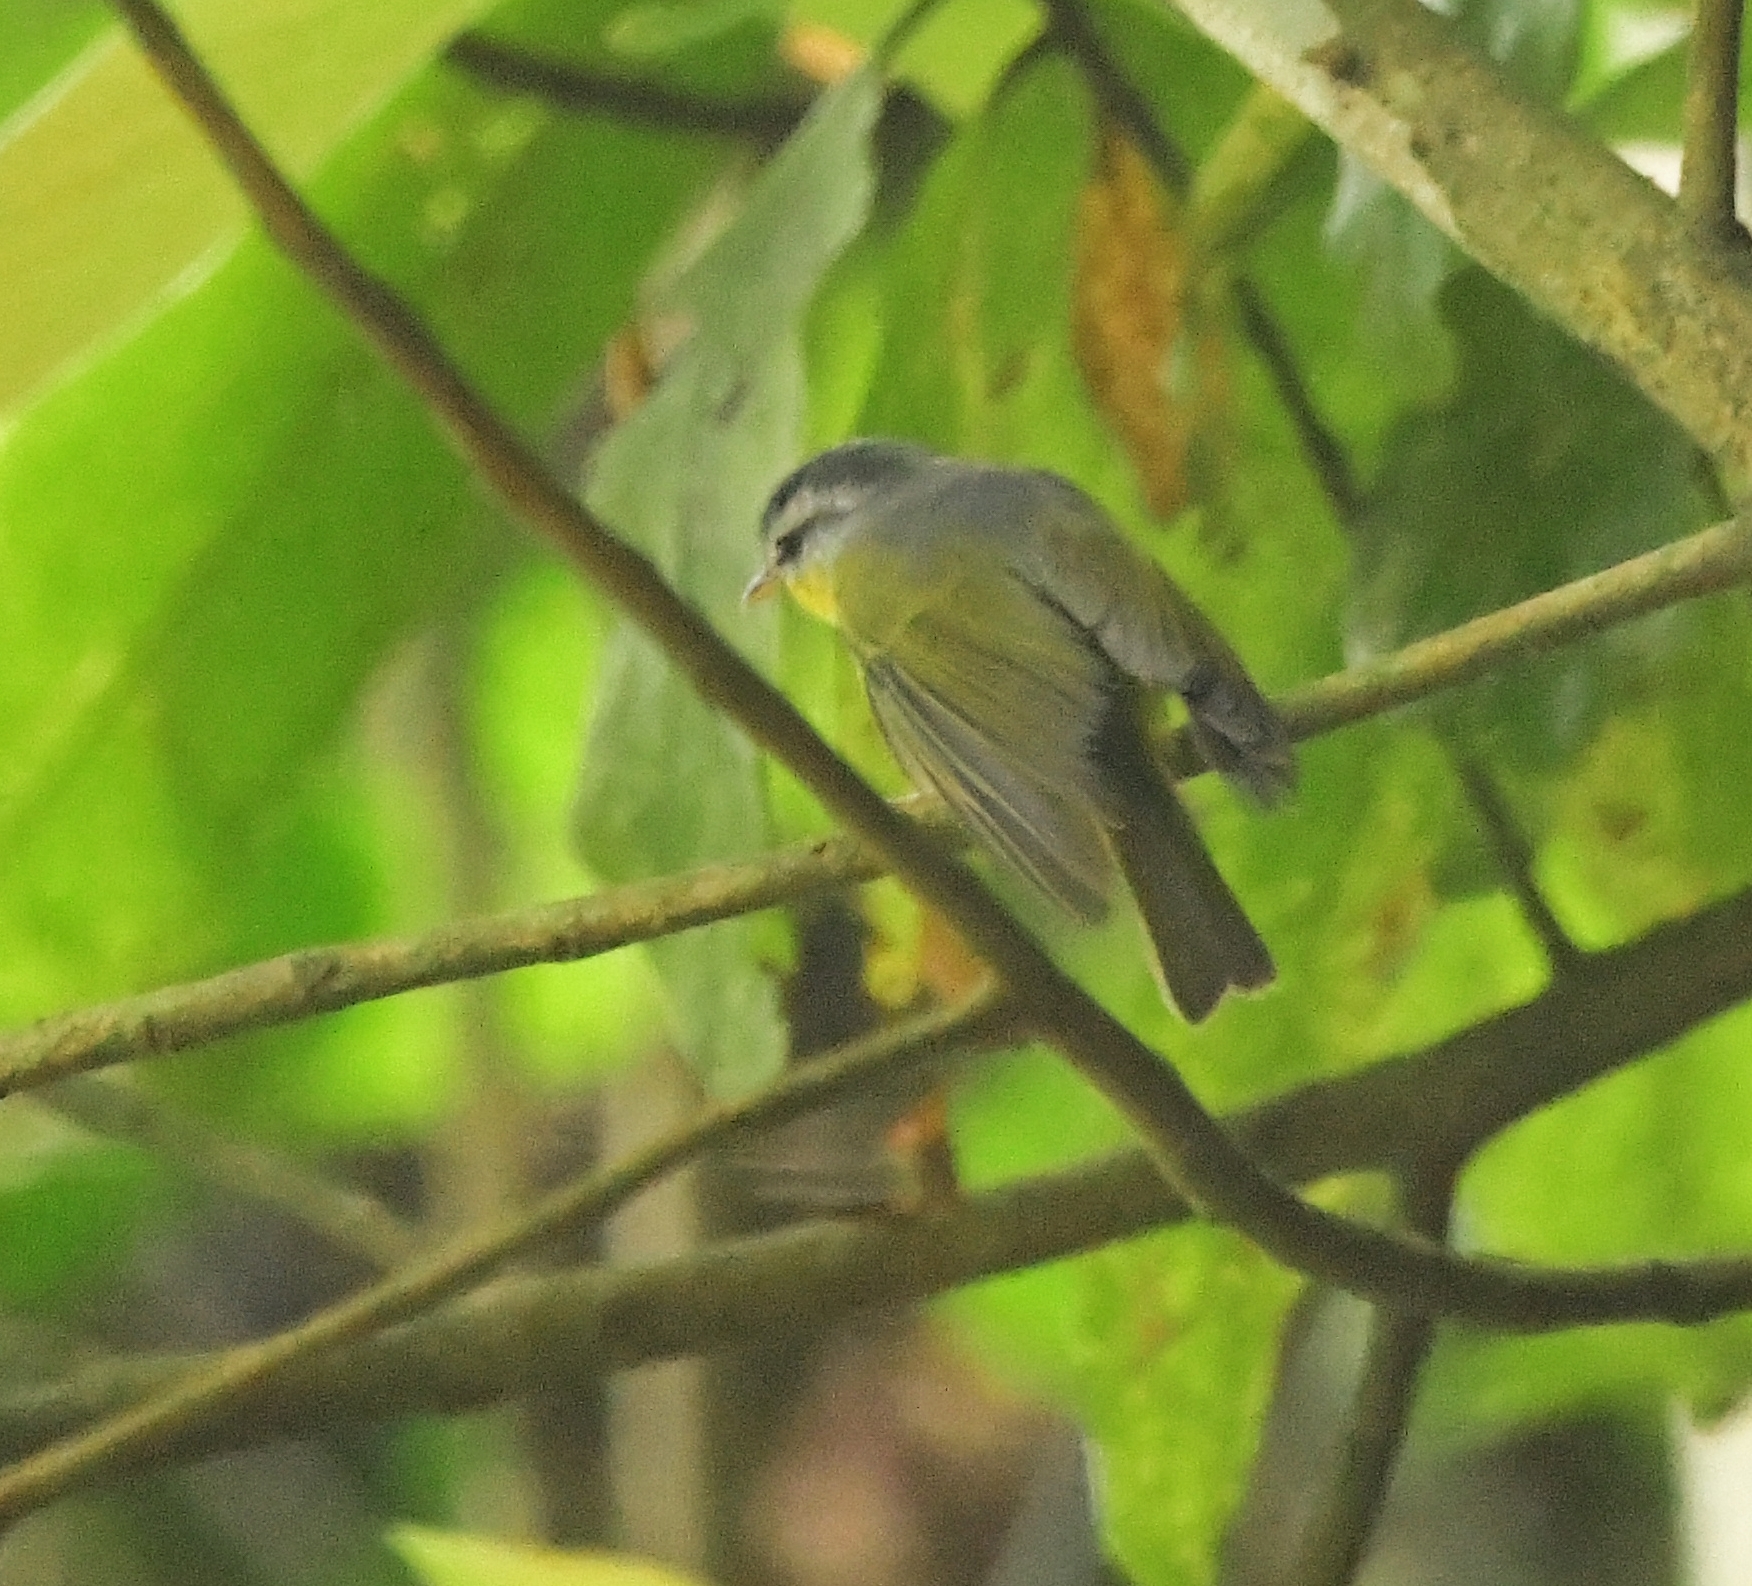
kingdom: Animalia
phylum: Chordata
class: Aves
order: Passeriformes
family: Phylloscopidae
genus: Phylloscopus
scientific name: Phylloscopus xanthoschistos
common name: Grey-hooded warbler
